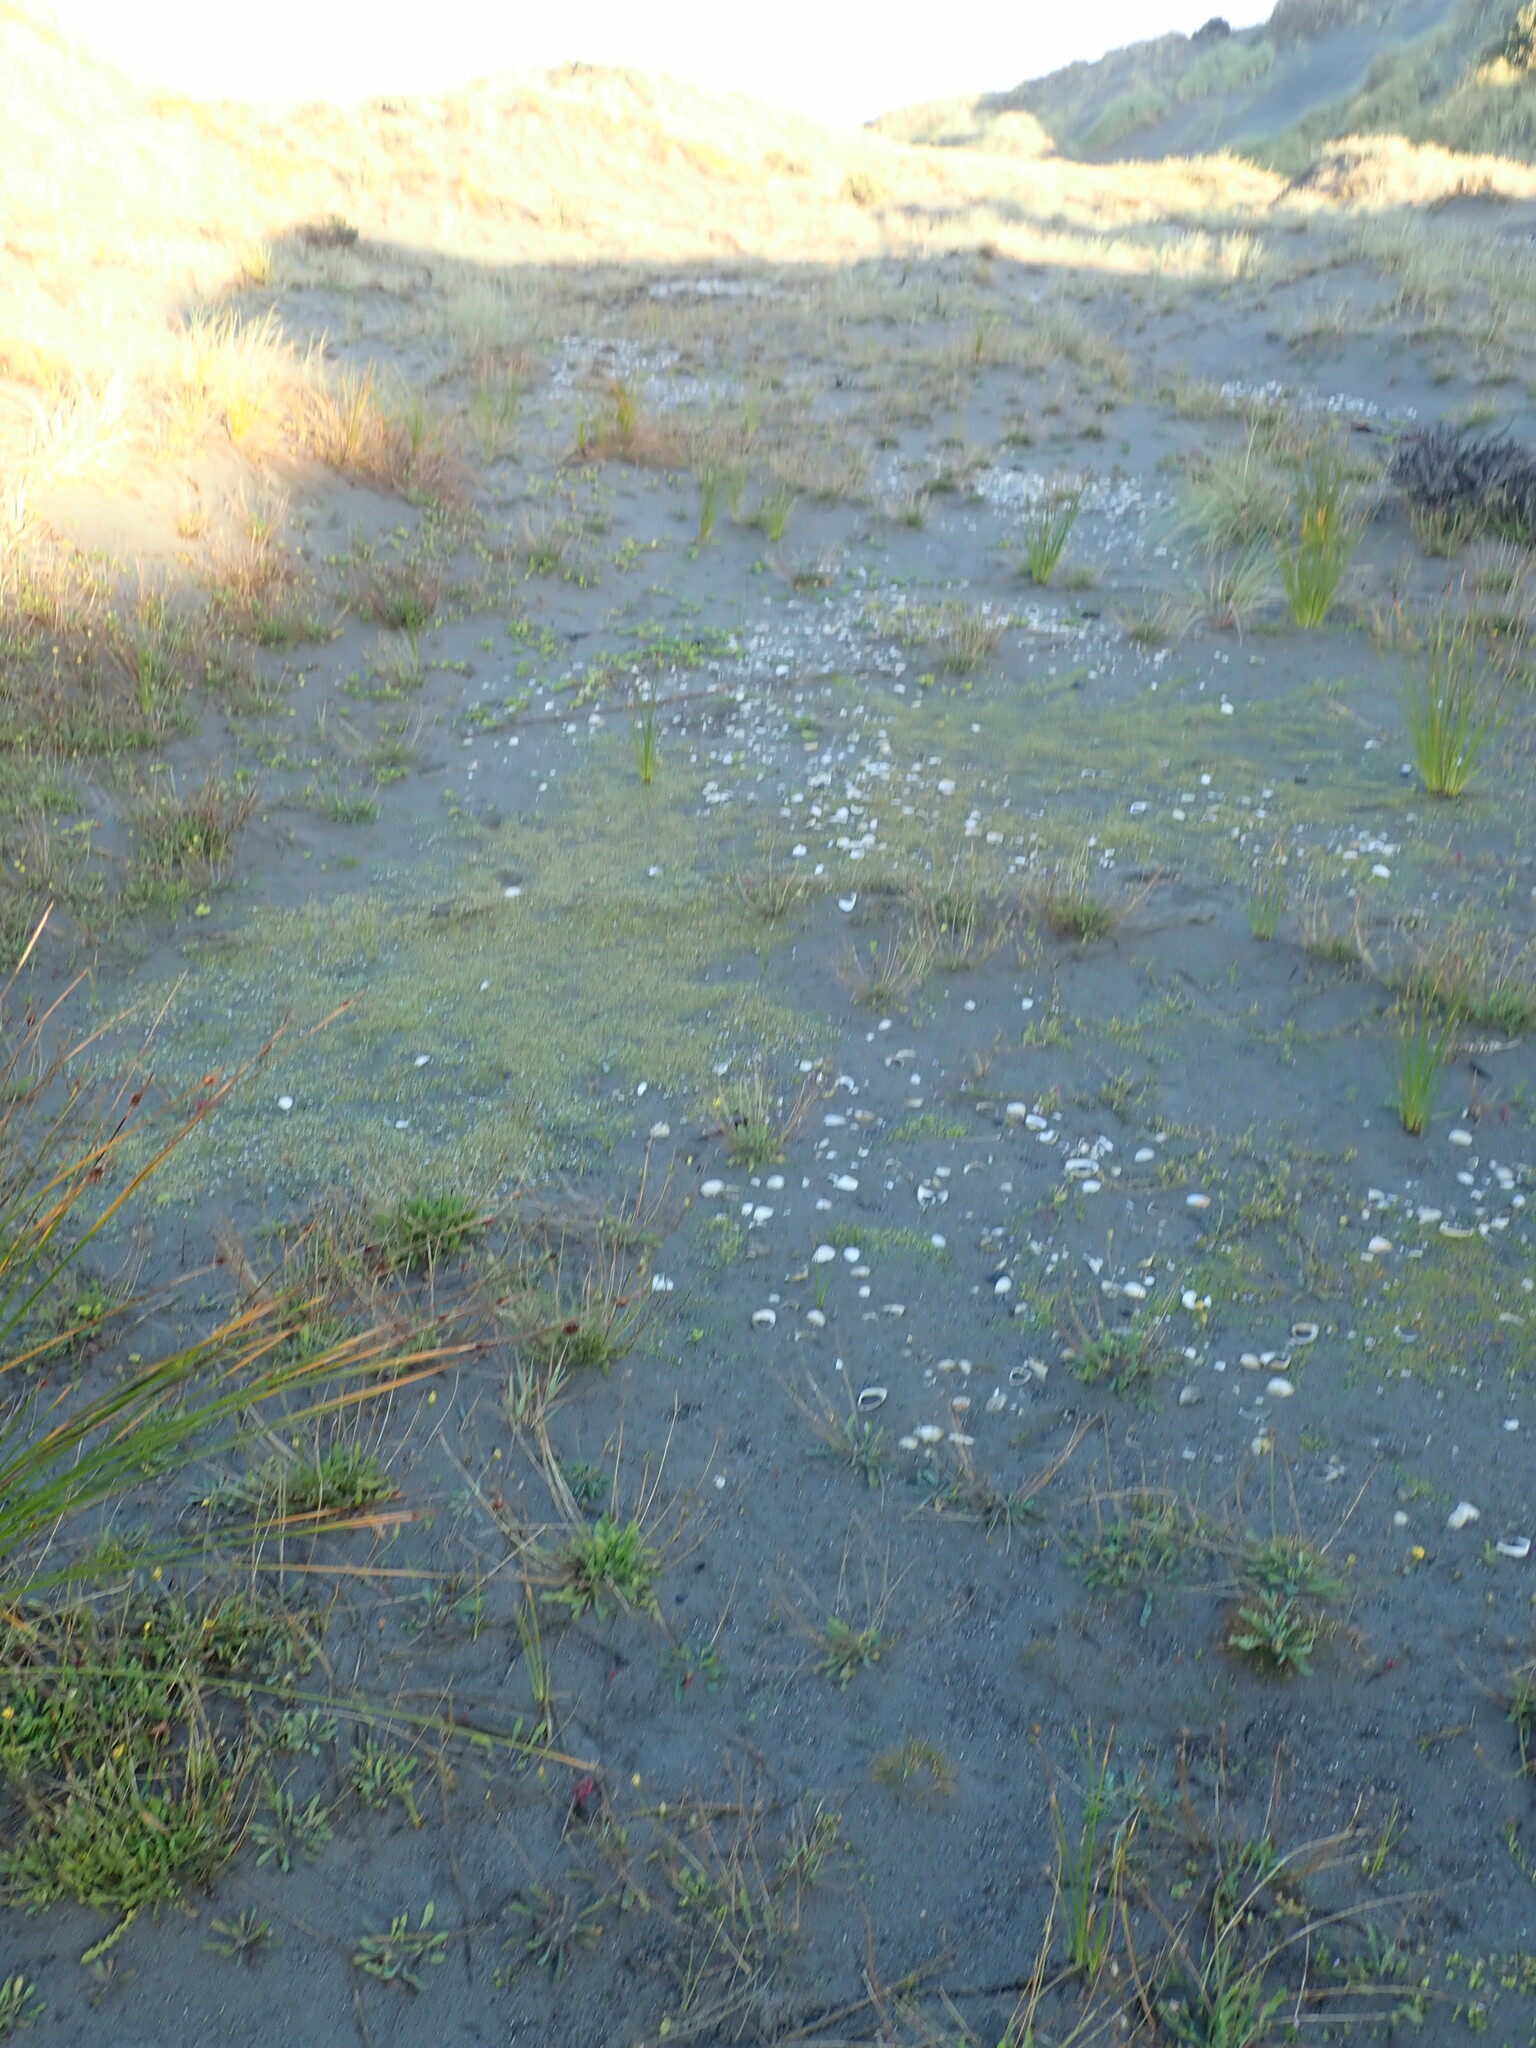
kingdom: Plantae
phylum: Tracheophyta
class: Magnoliopsida
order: Asterales
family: Goodeniaceae
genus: Goodenia
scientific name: Goodenia heenanii
